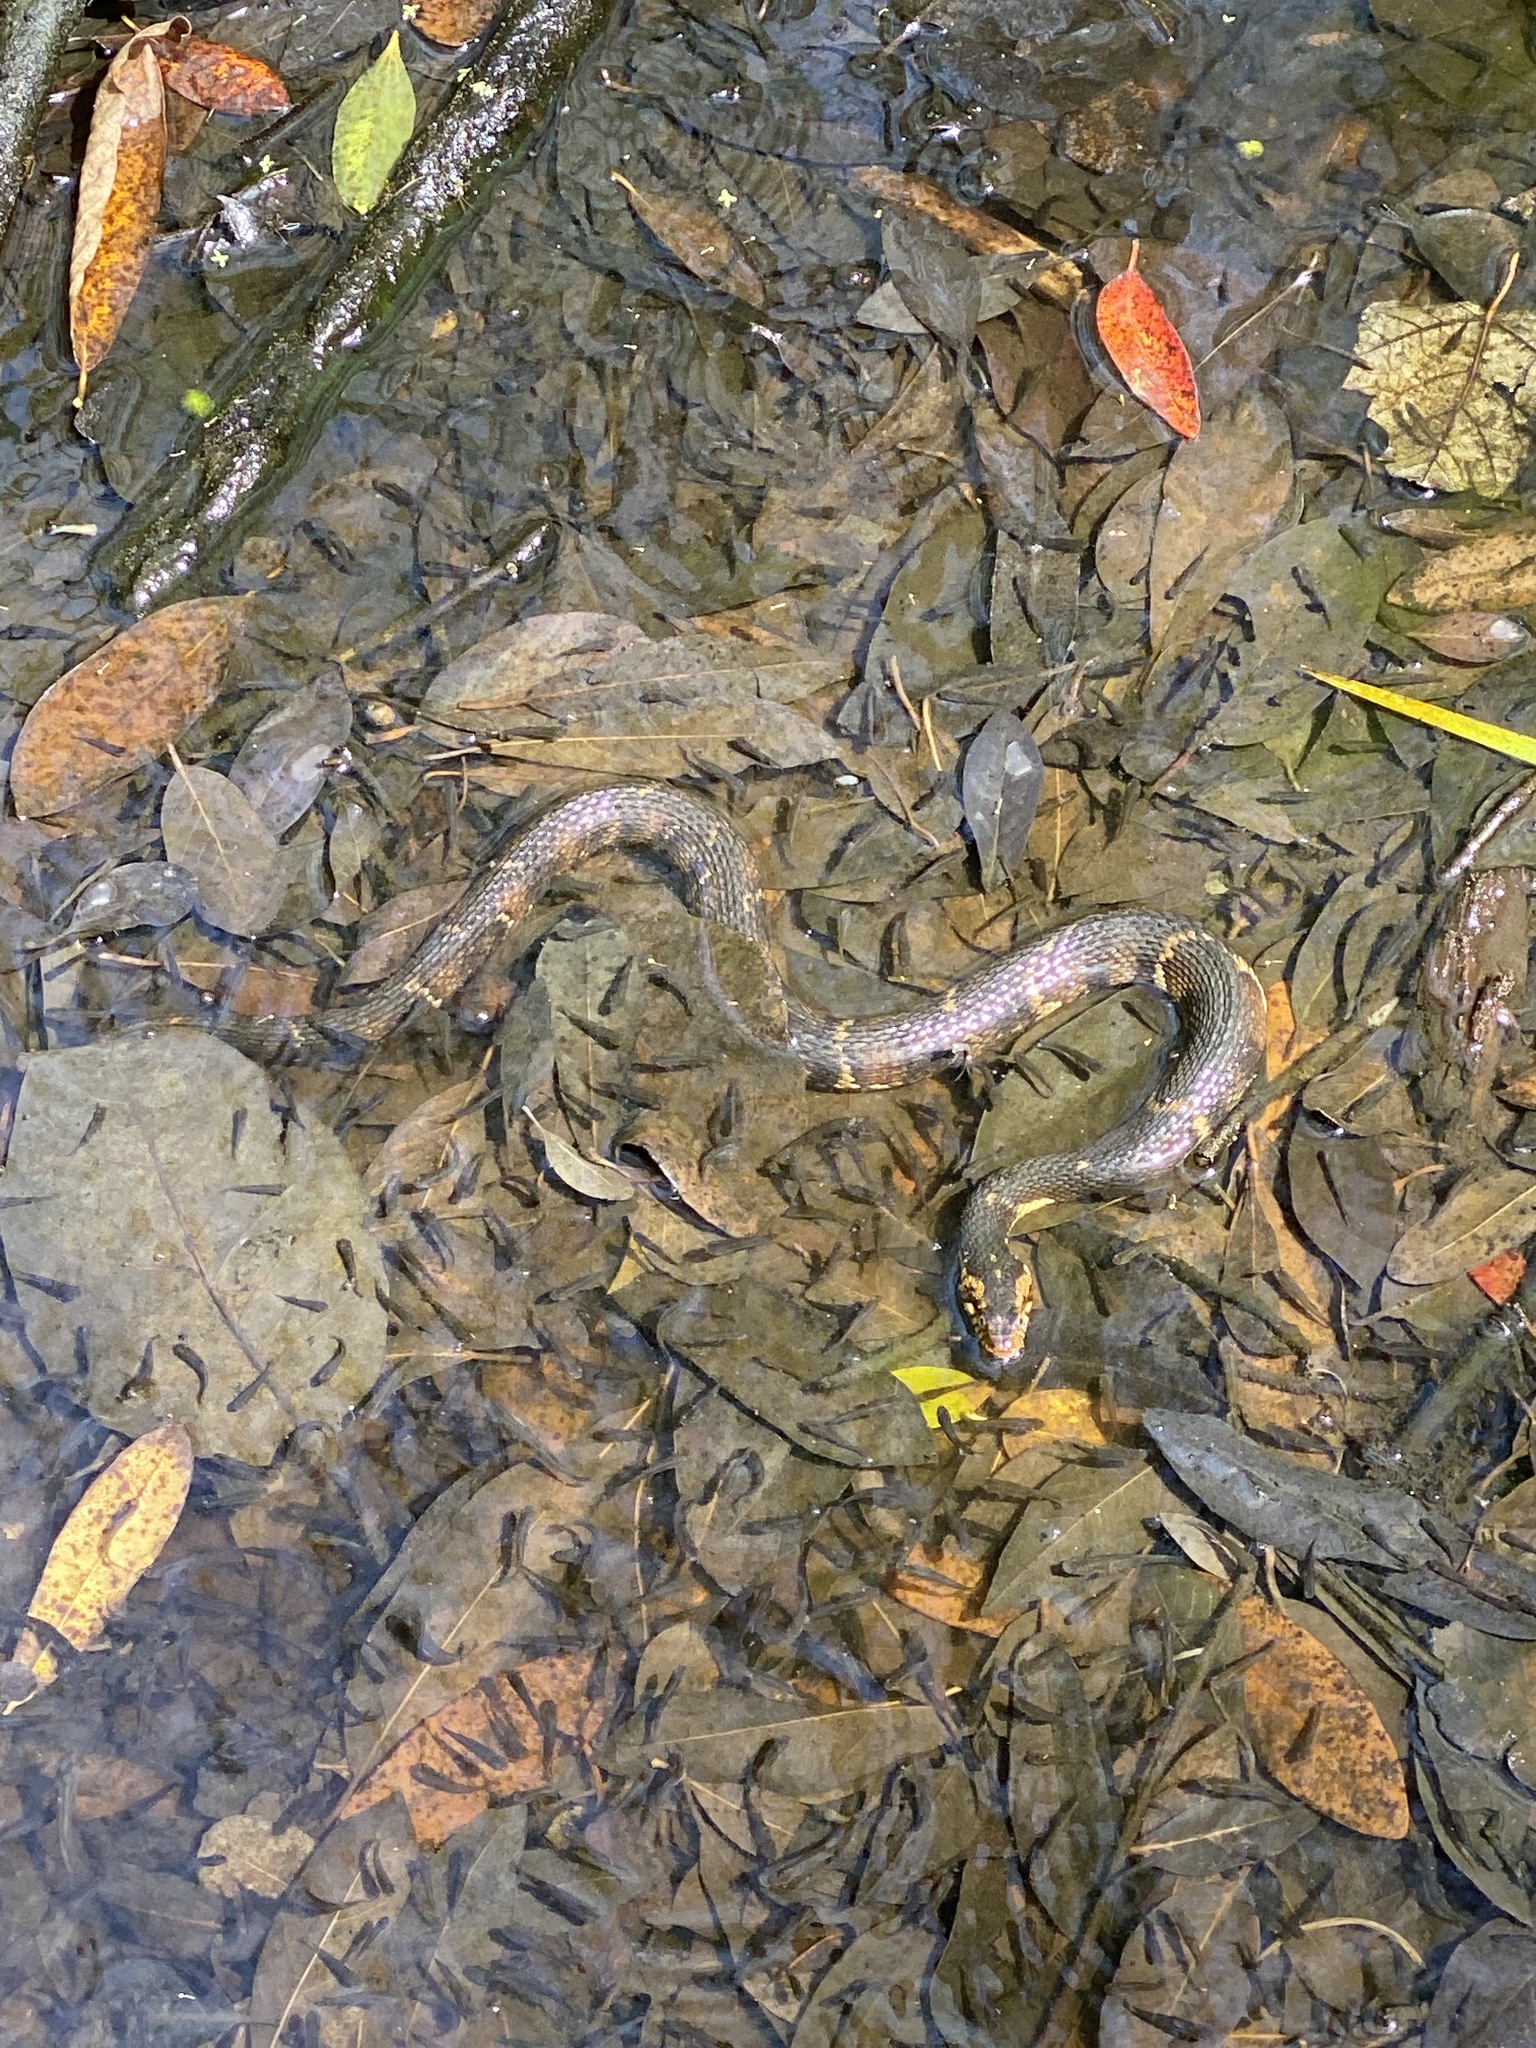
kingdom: Animalia
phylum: Chordata
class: Squamata
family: Colubridae
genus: Nerodia
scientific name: Nerodia fasciata
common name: Southern water snake
